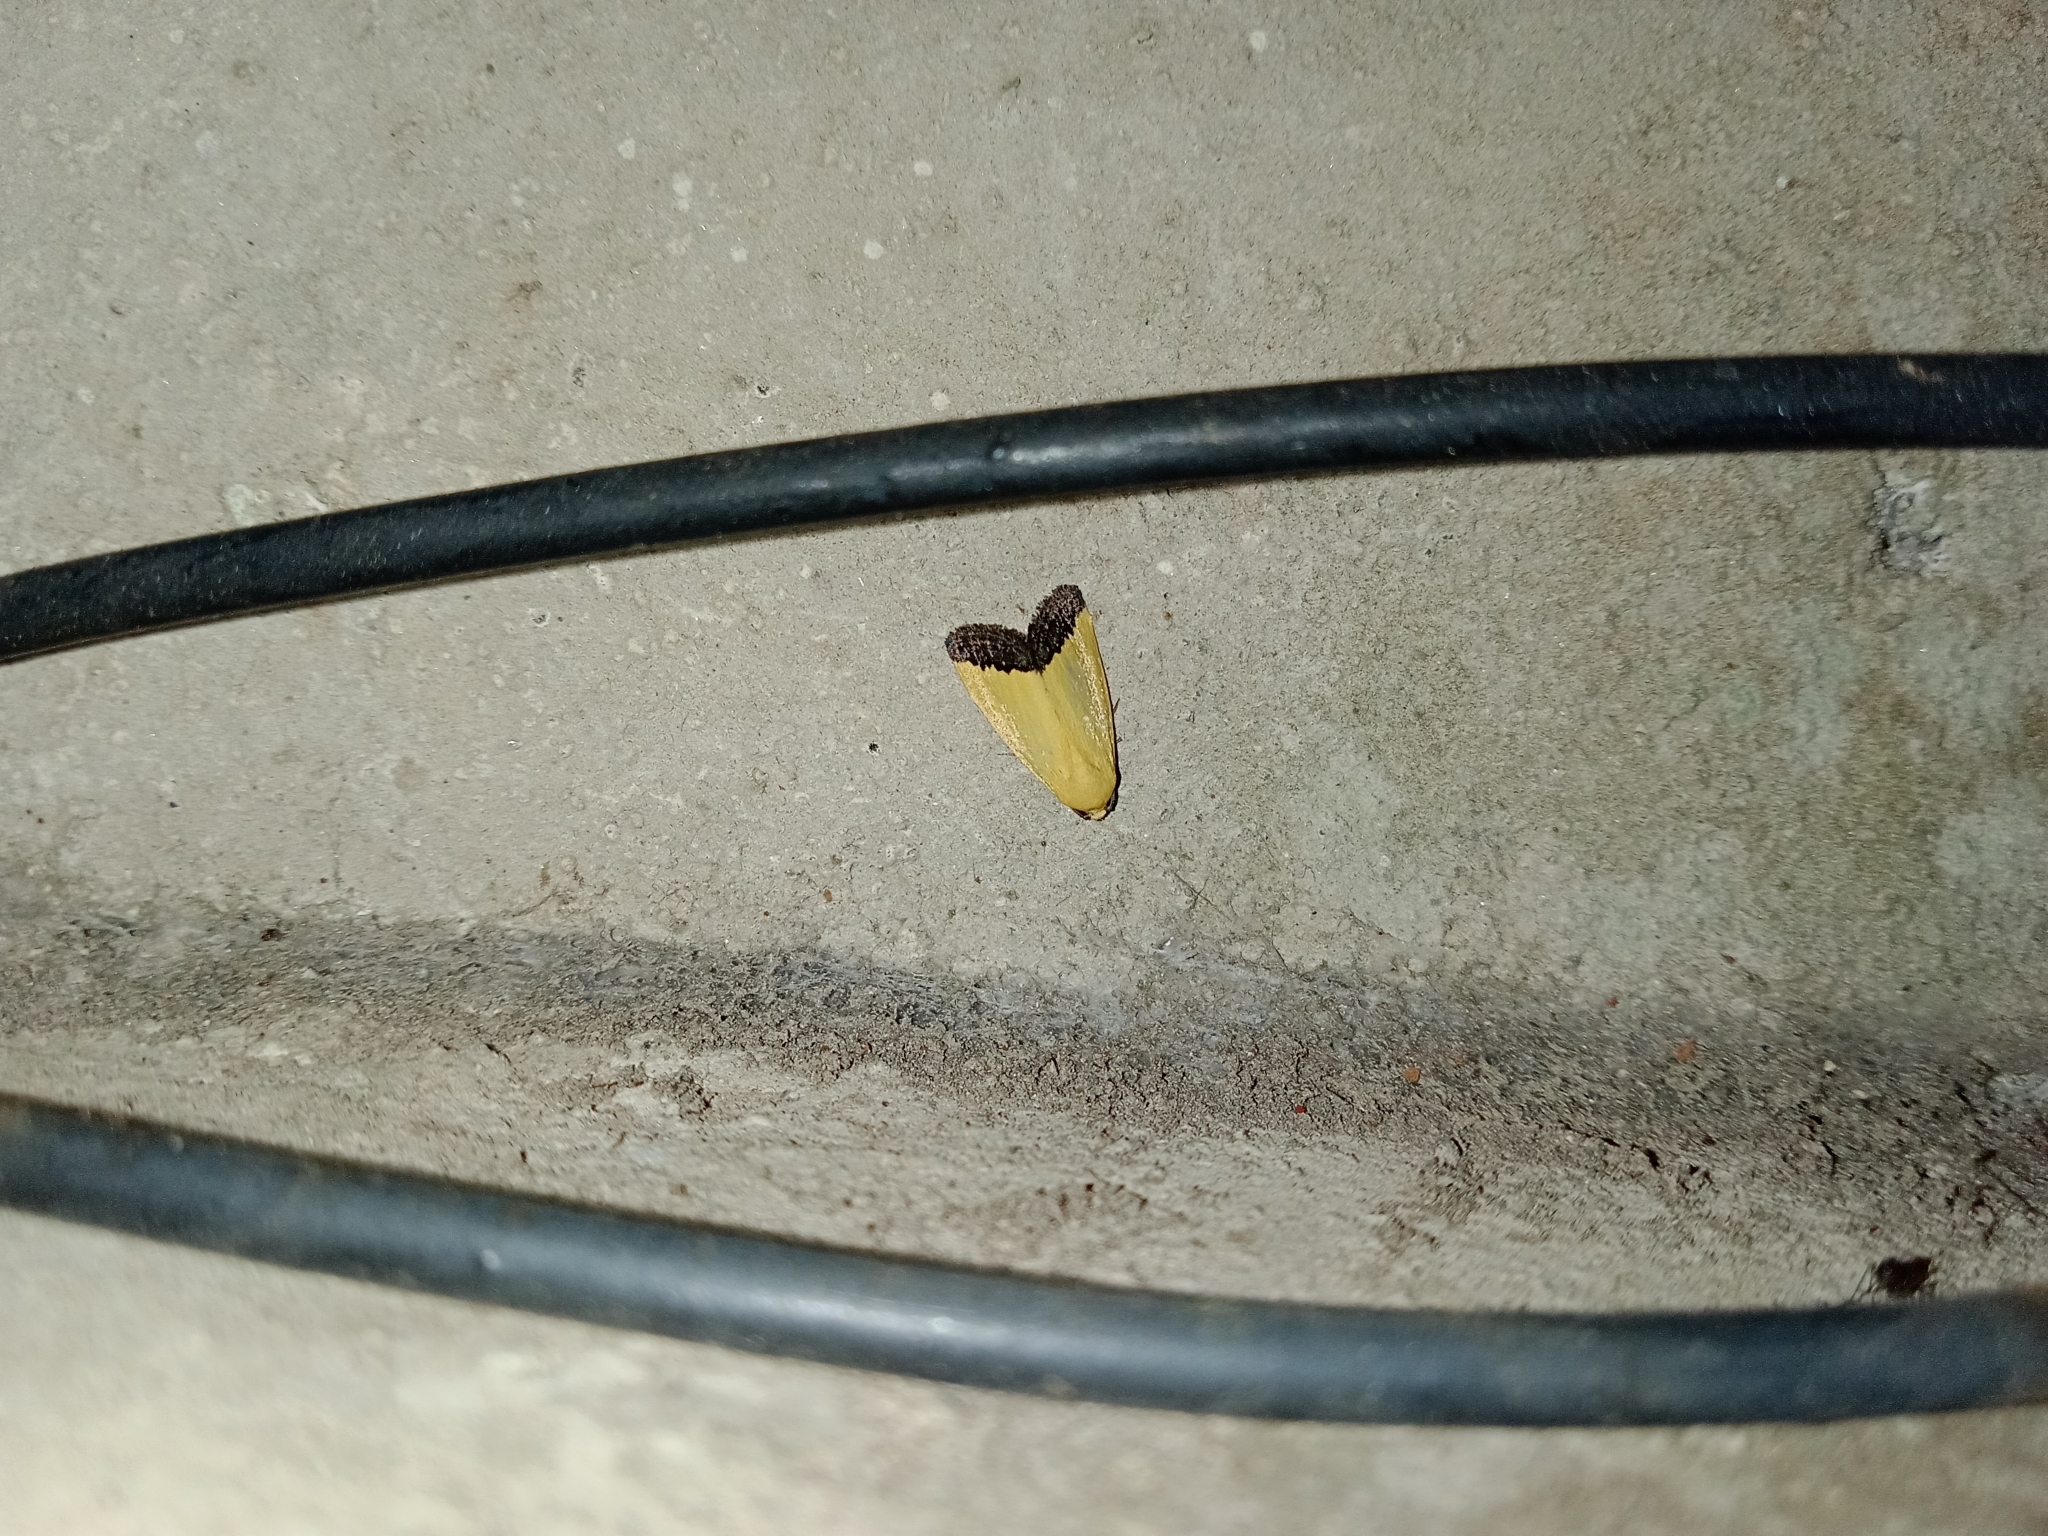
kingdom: Animalia
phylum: Arthropoda
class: Insecta
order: Lepidoptera
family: Noctuidae
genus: Eustrotia
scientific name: Eustrotia marginata
